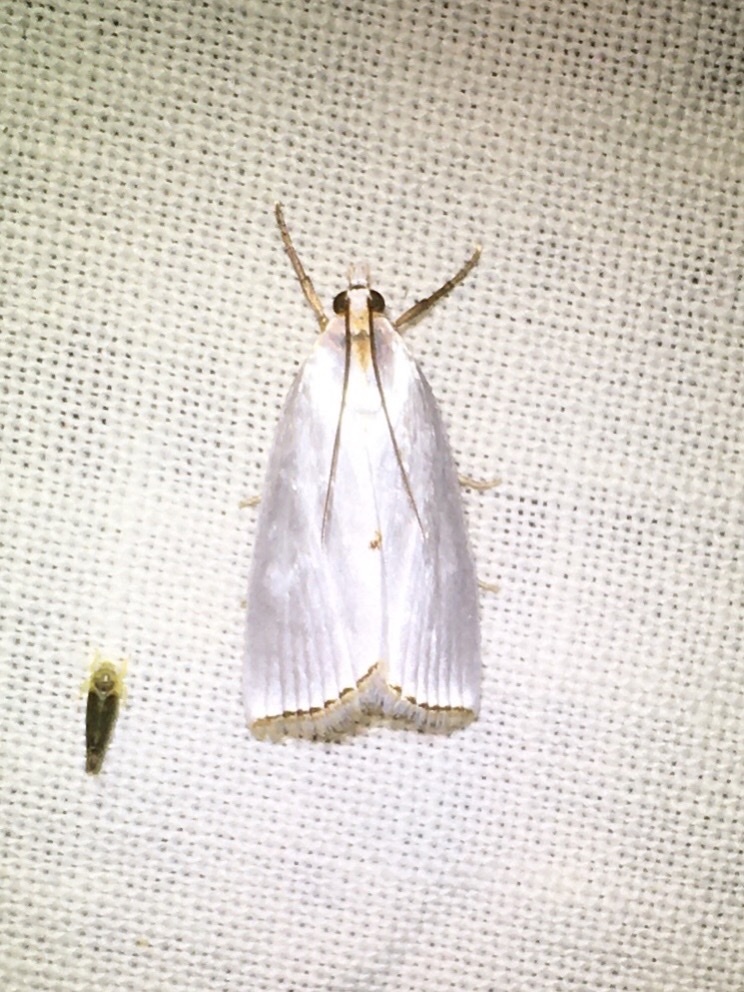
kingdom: Animalia
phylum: Arthropoda
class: Insecta
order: Lepidoptera
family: Crambidae
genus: Argyria
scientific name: Argyria nivalis
